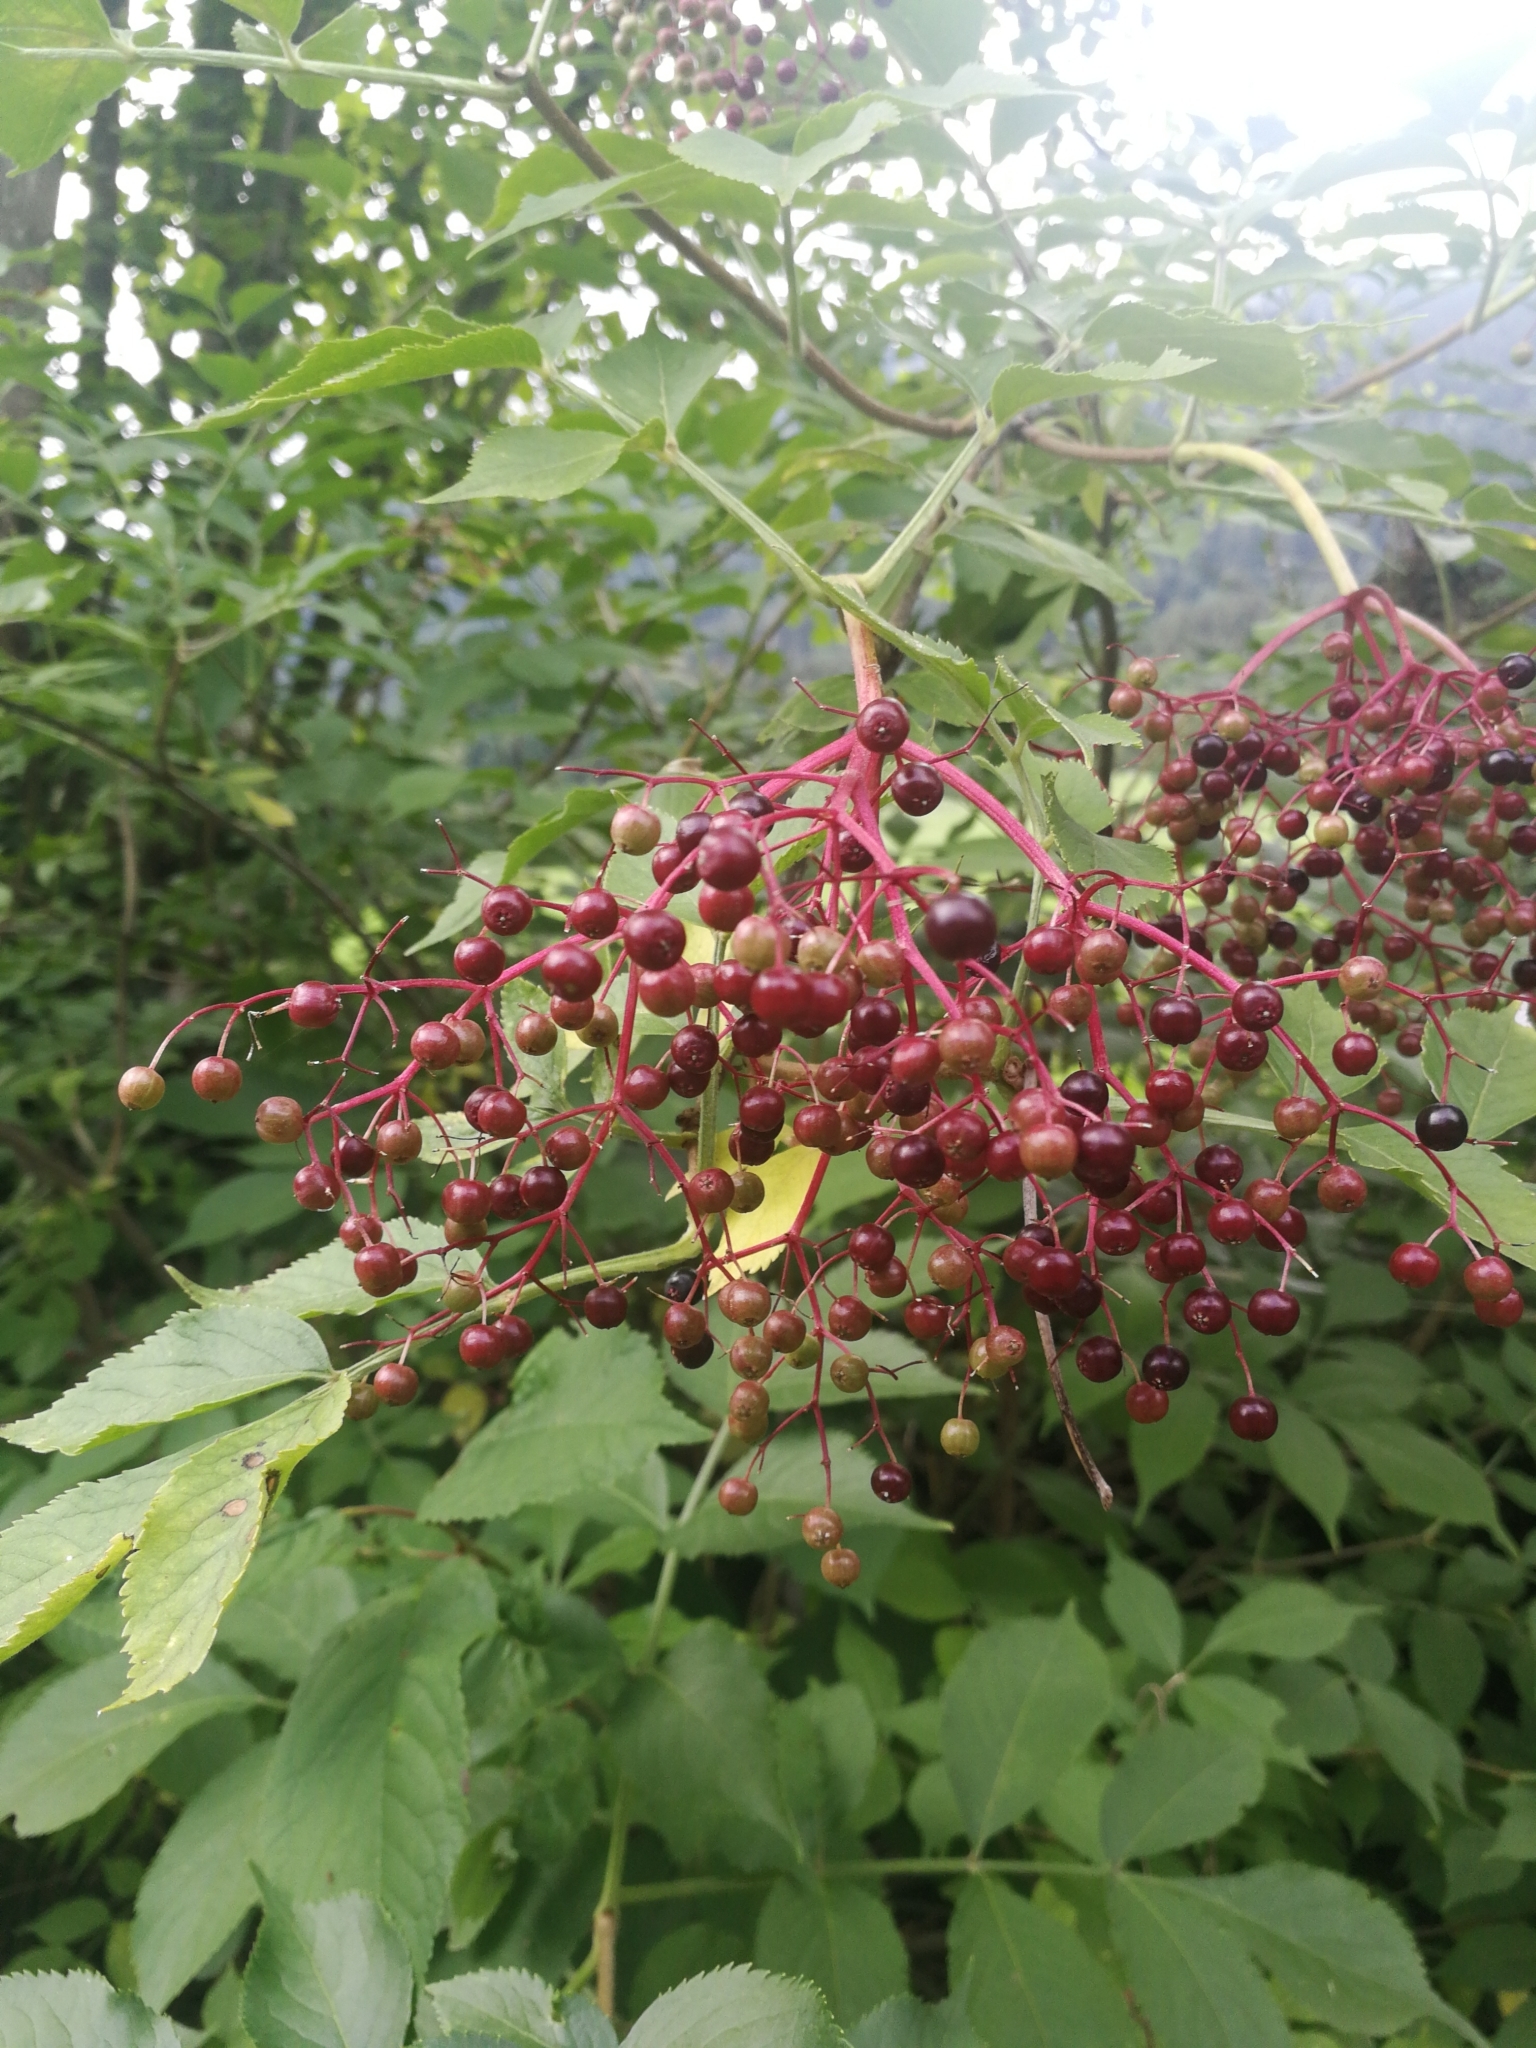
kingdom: Plantae
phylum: Tracheophyta
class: Magnoliopsida
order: Dipsacales
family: Viburnaceae
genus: Sambucus
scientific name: Sambucus nigra
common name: Elder
